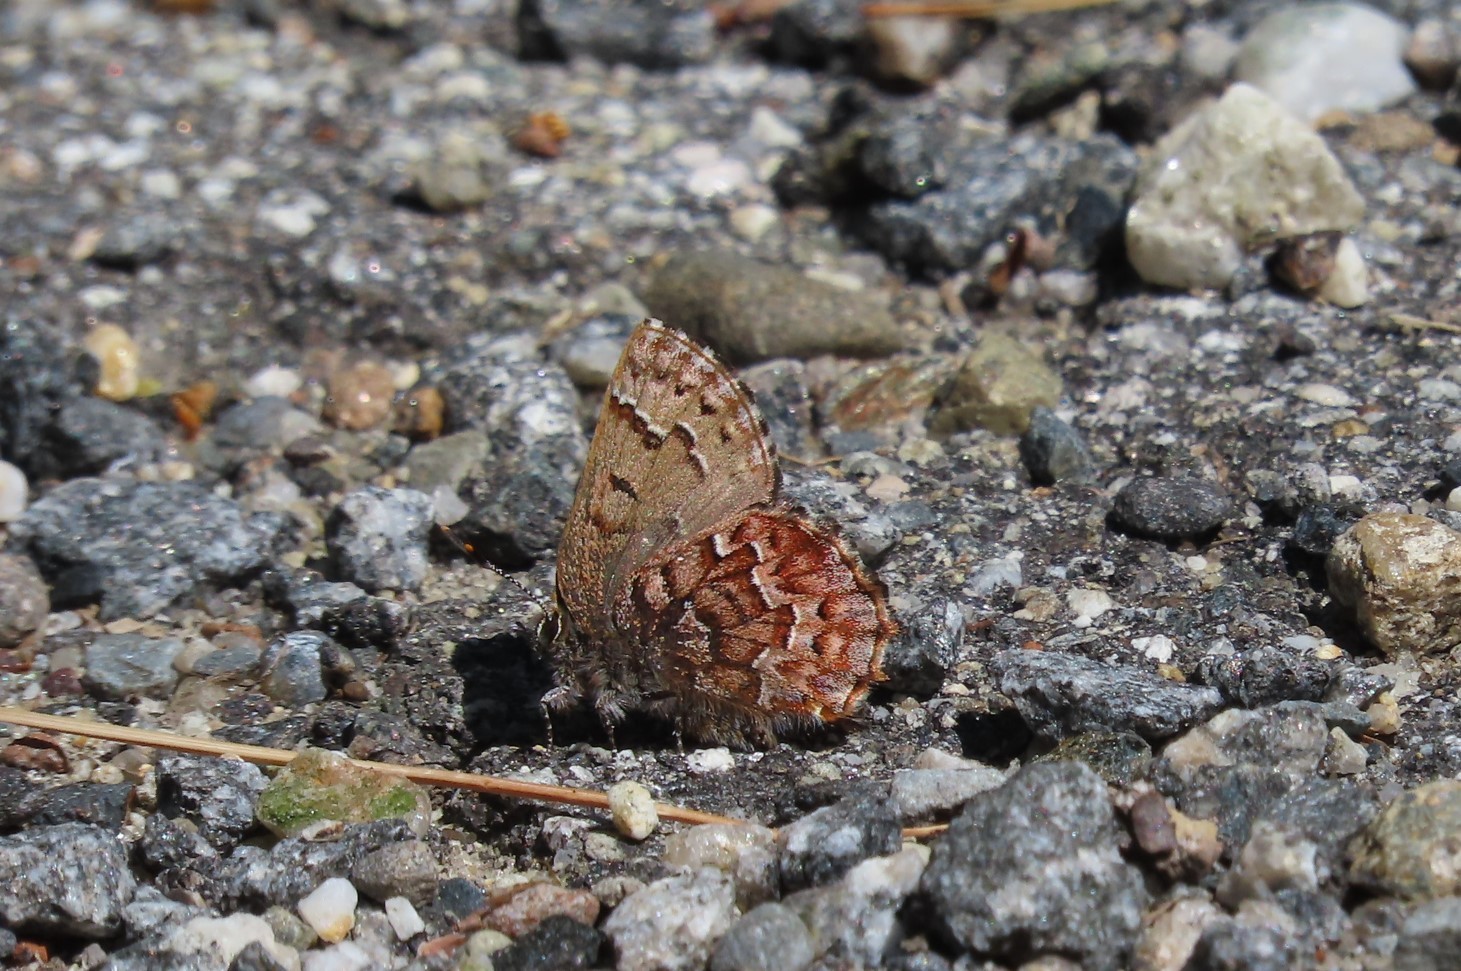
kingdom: Animalia
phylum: Arthropoda
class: Insecta
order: Lepidoptera
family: Lycaenidae
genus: Incisalia
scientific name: Incisalia niphon
